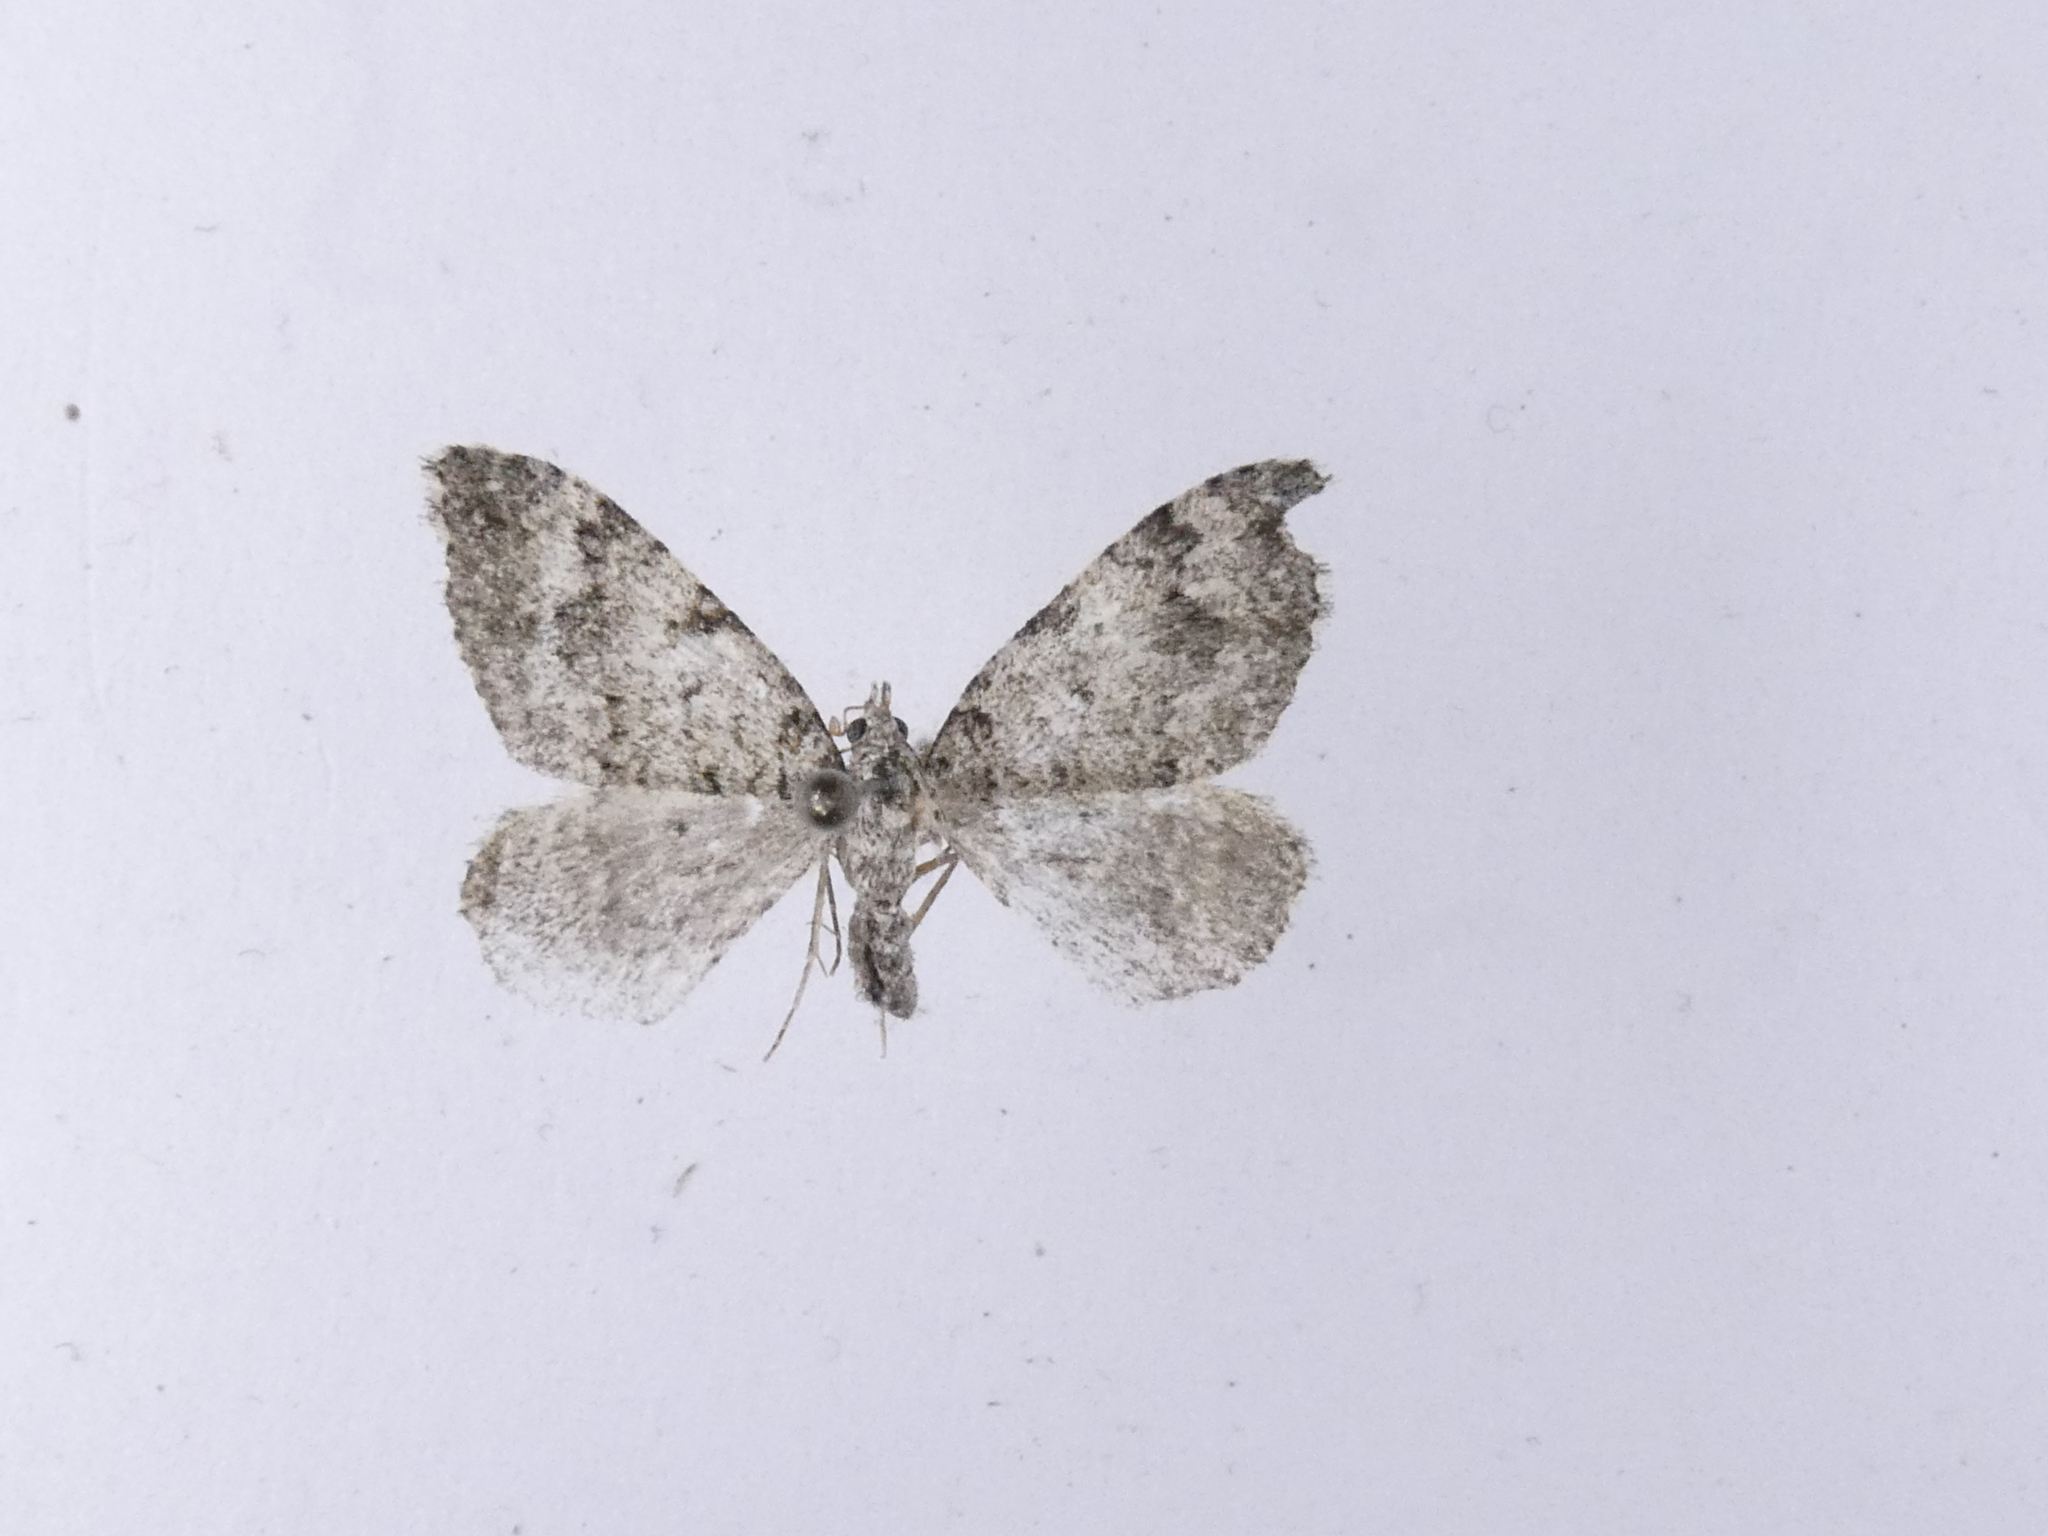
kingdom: Animalia
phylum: Arthropoda
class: Insecta
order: Lepidoptera
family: Geometridae
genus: Helastia
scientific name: Helastia cinerearia
